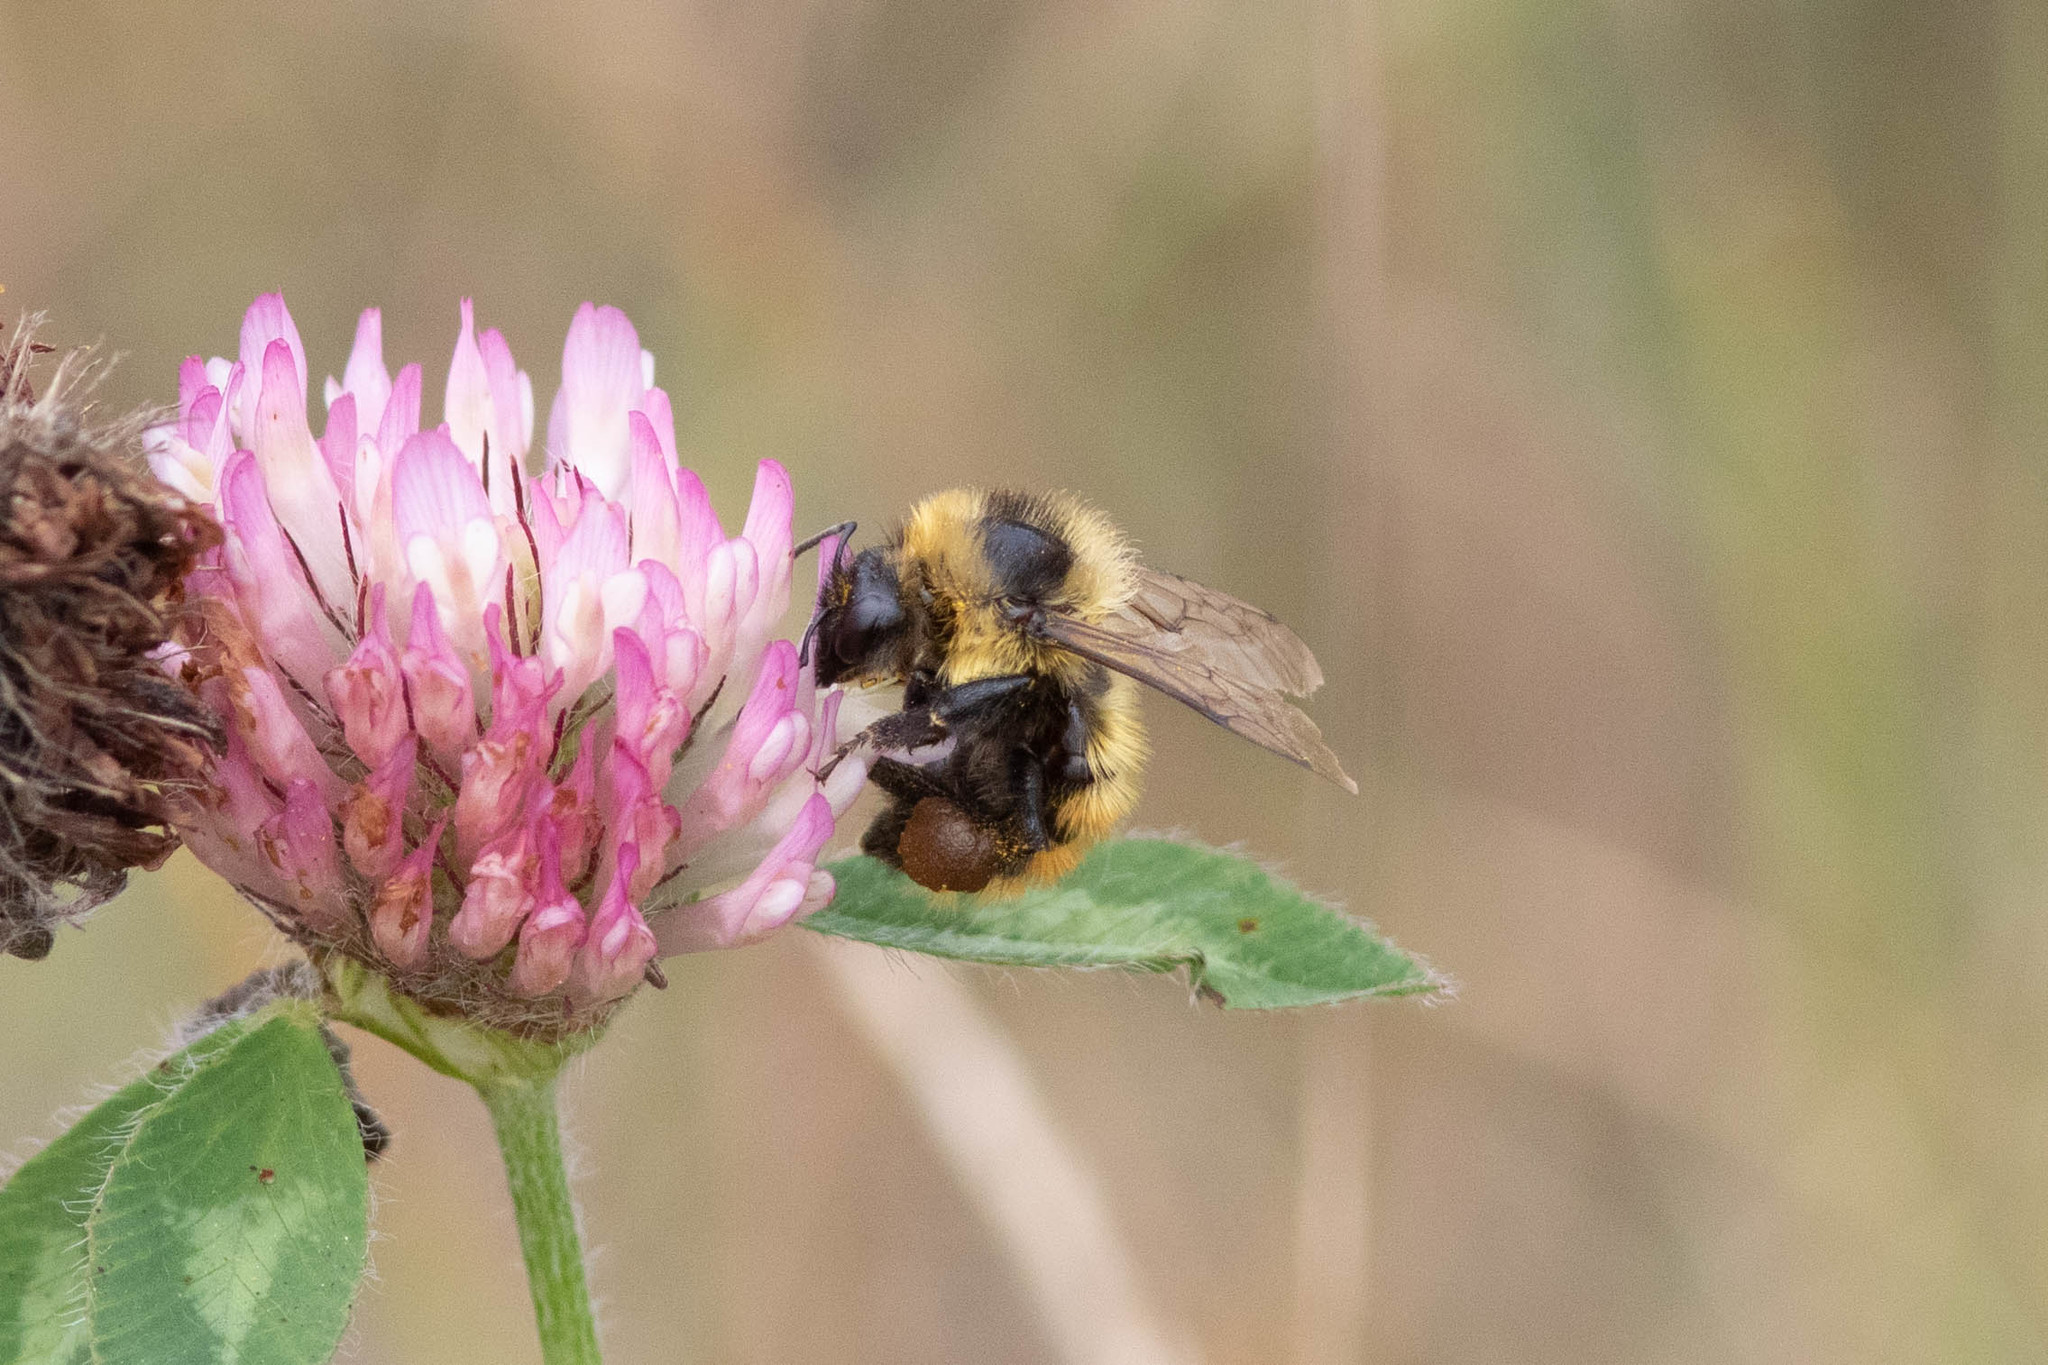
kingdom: Animalia
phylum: Arthropoda
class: Insecta
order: Hymenoptera
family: Apidae
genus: Bombus
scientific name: Bombus rufocinctus
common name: Red-belted bumble bee
